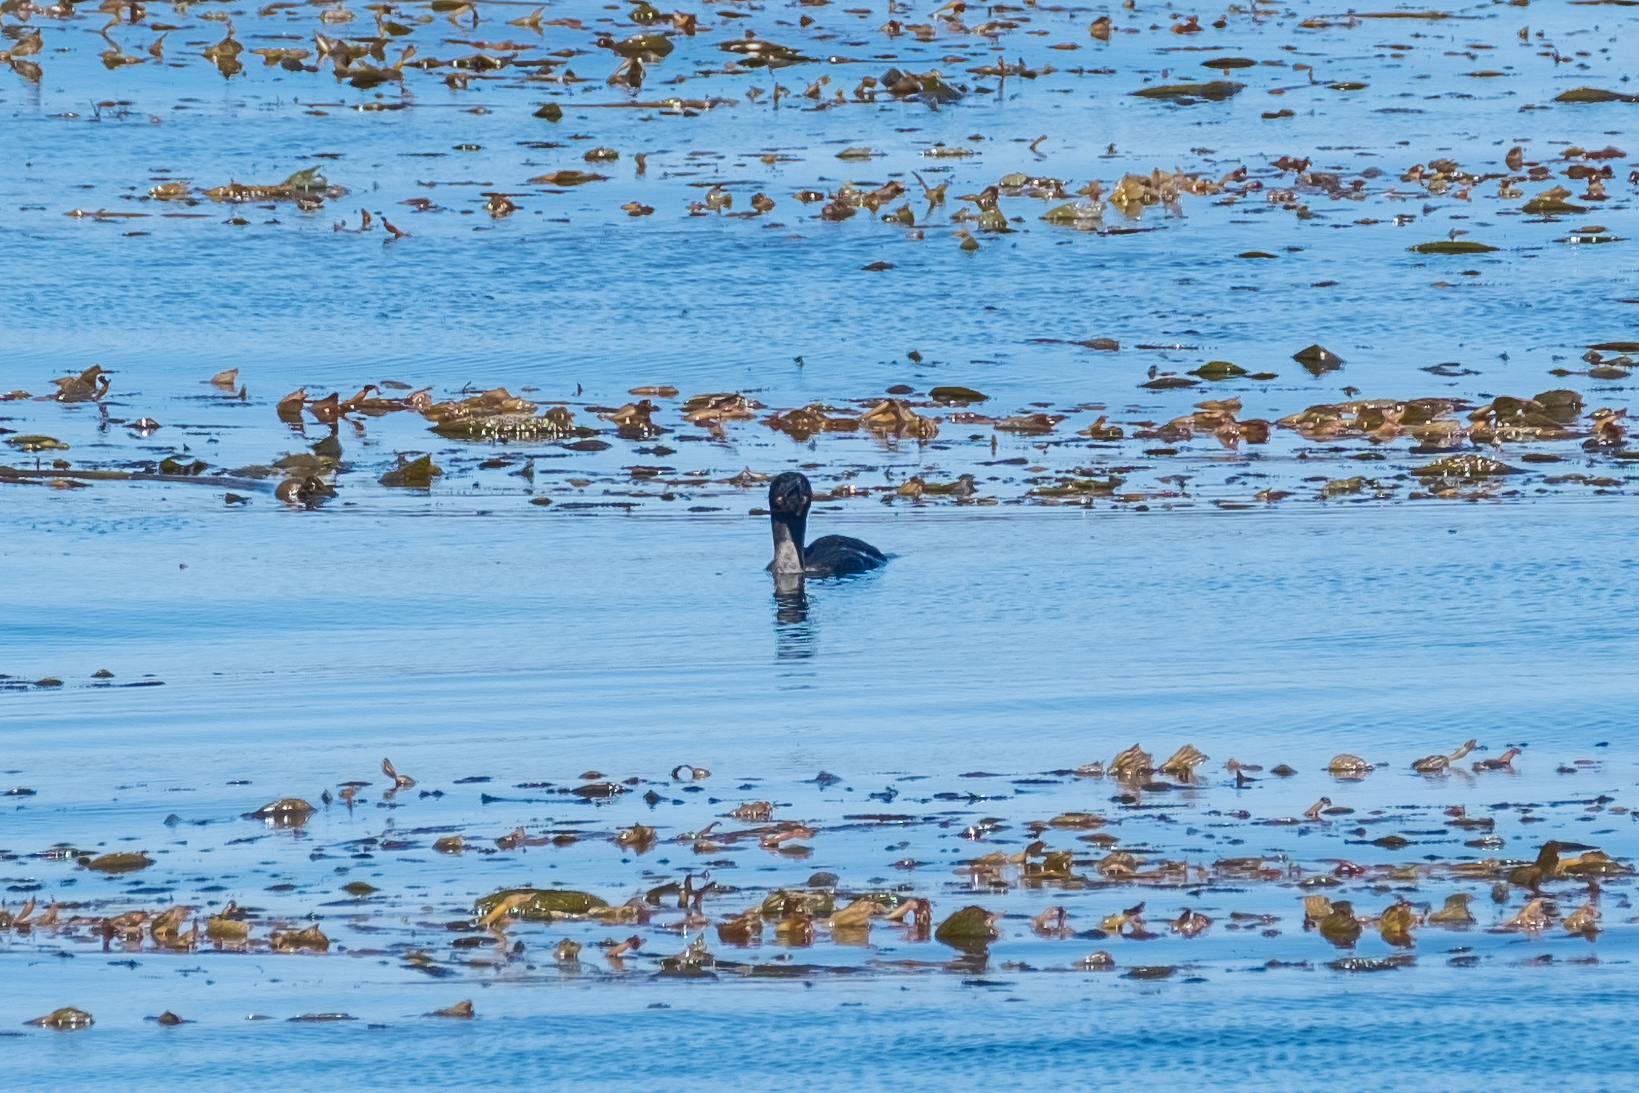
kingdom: Animalia
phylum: Chordata
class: Aves
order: Suliformes
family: Phalacrocoracidae
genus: Urile
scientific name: Urile penicillatus
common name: Brandt's cormorant
